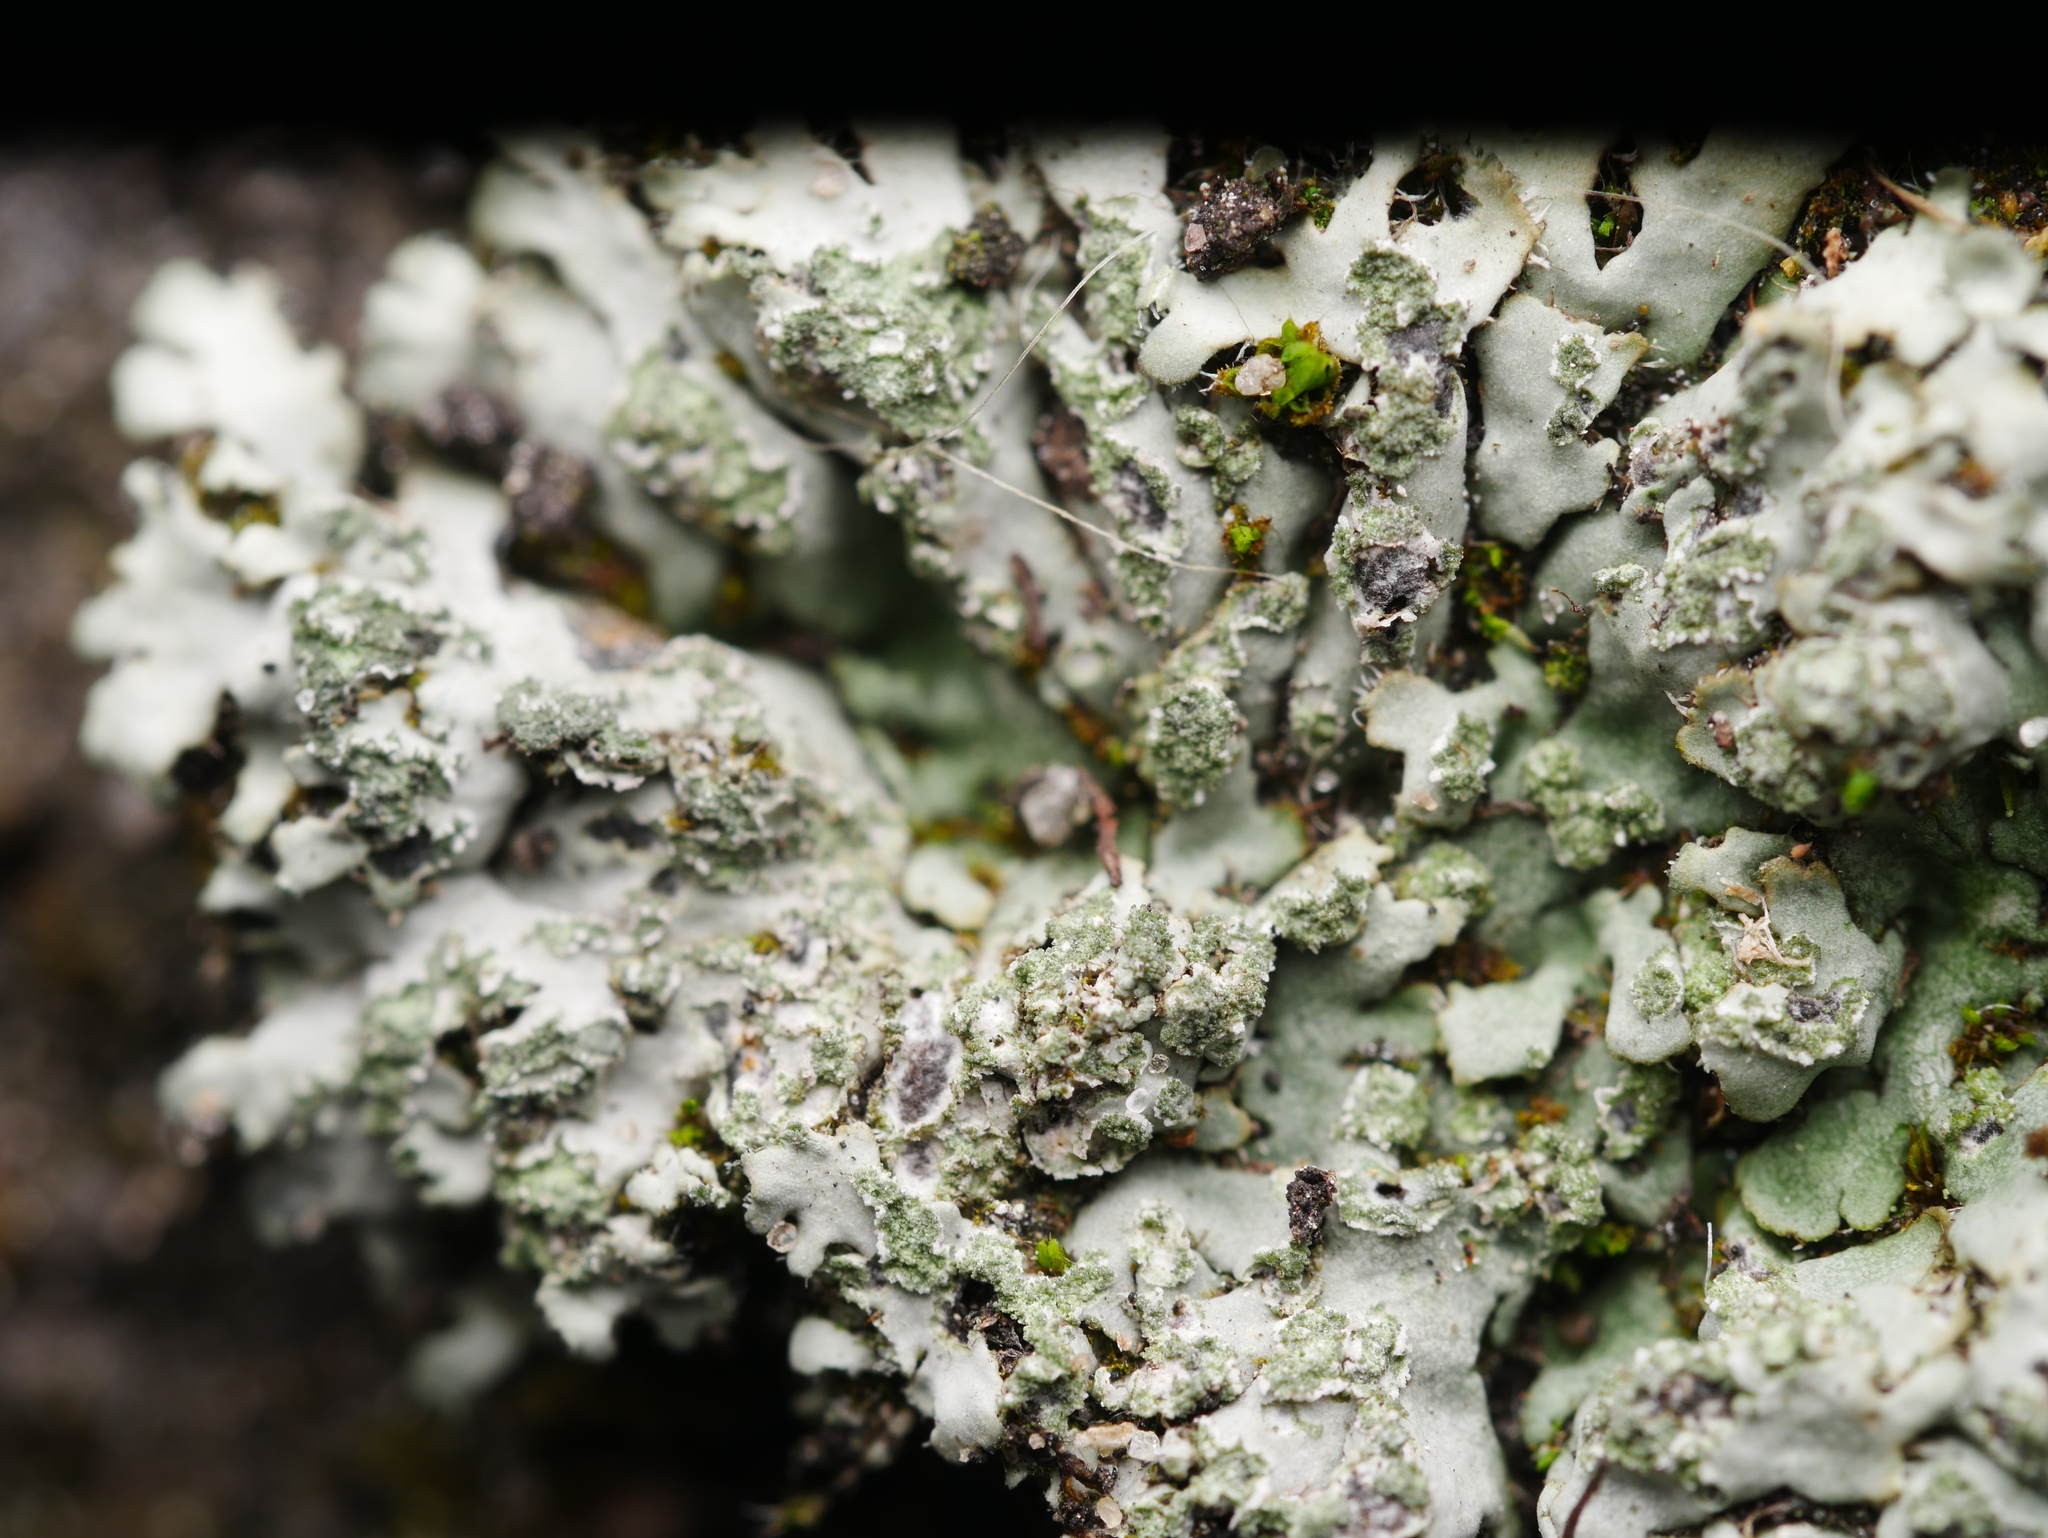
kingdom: Fungi
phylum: Ascomycota
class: Lecanoromycetes
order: Caliciales
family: Physciaceae
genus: Phaeophyscia
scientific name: Phaeophyscia orbicularis
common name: Mealy shadow lichen
